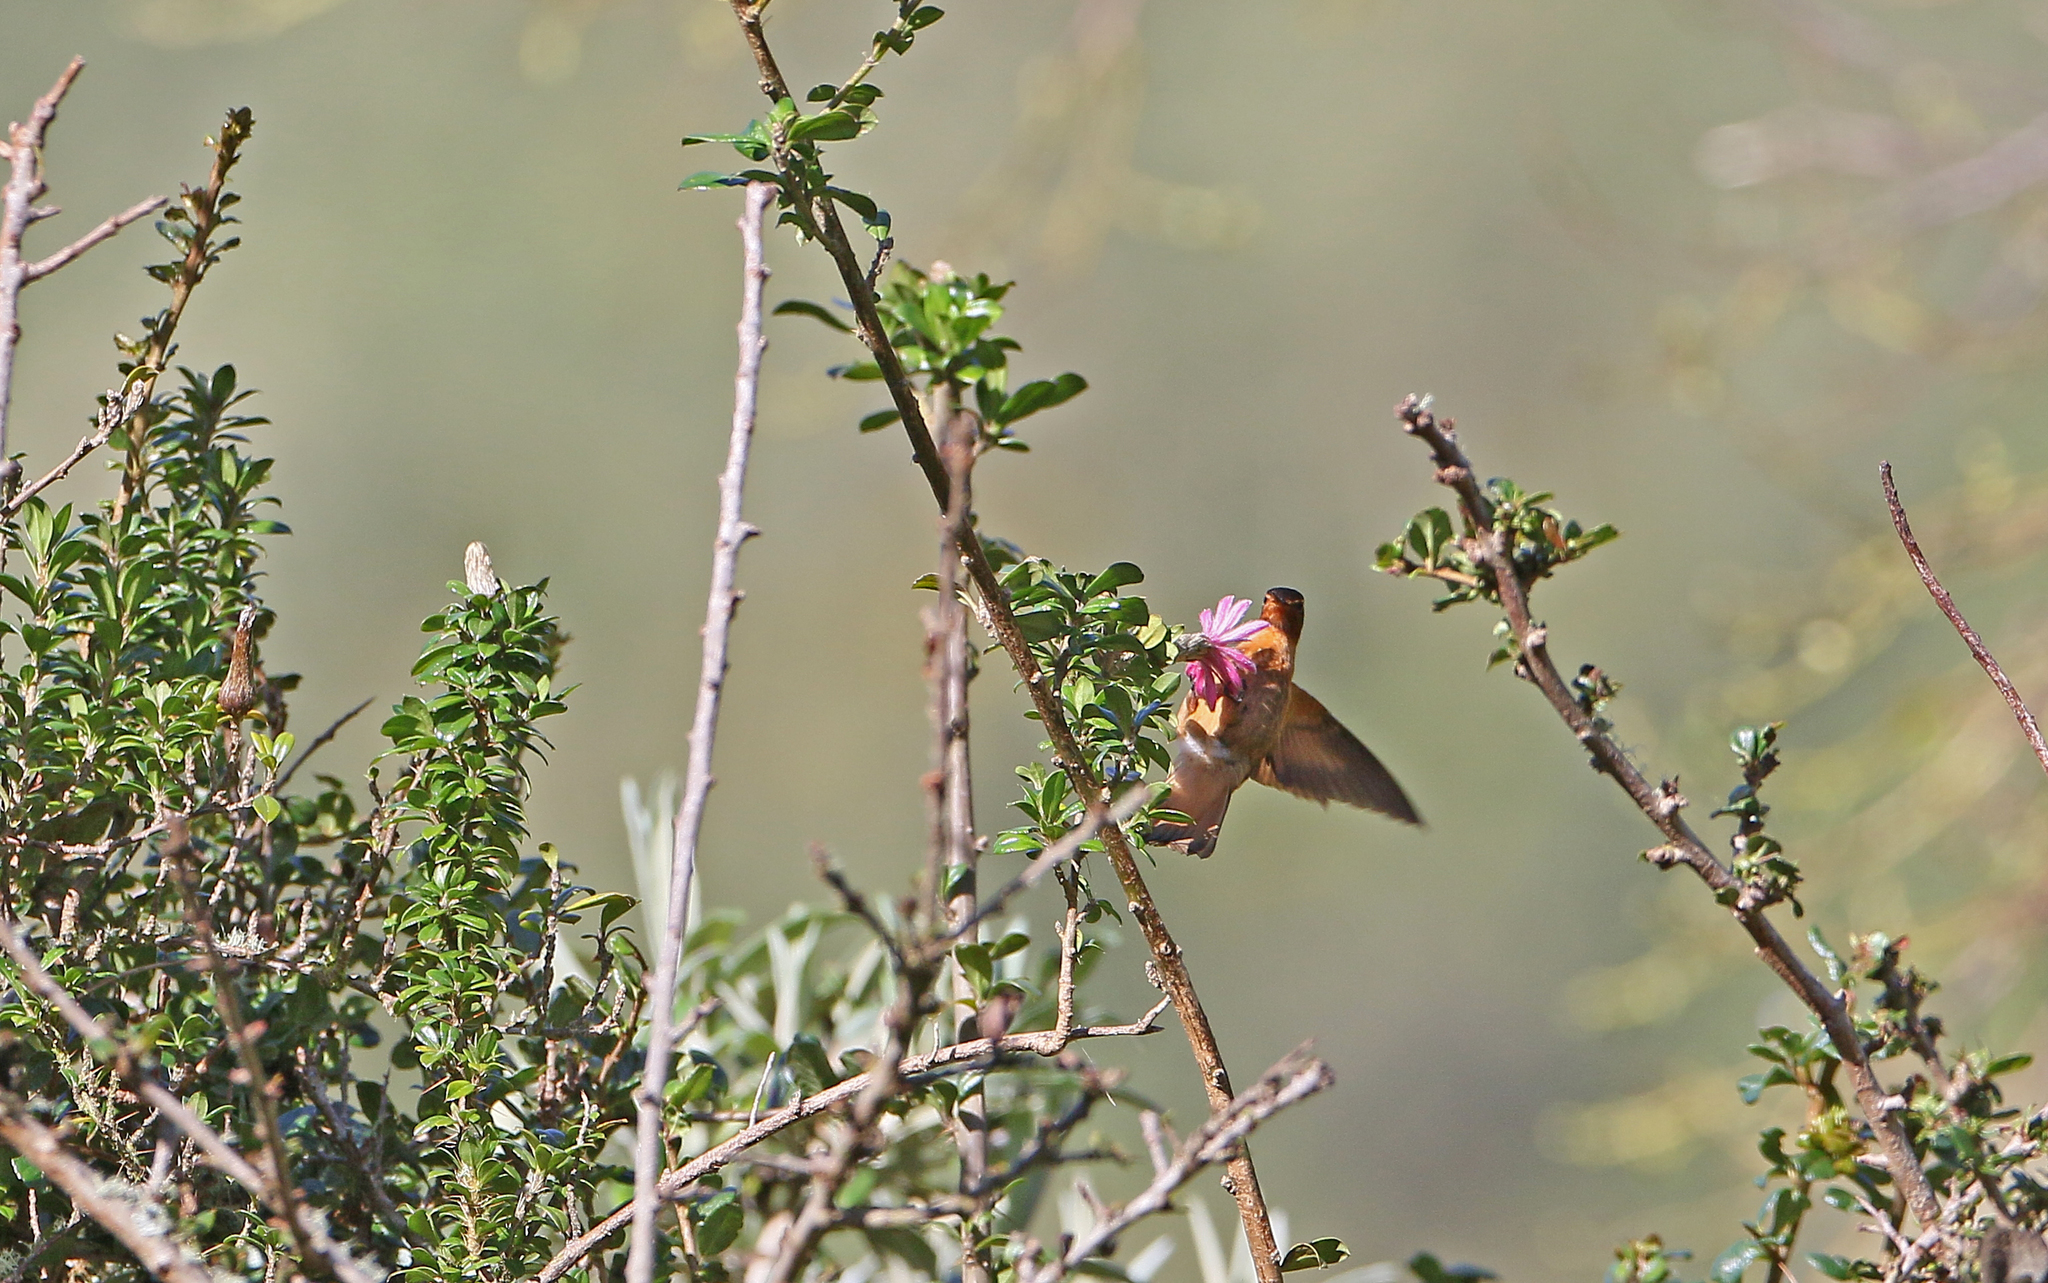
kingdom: Animalia
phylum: Chordata
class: Aves
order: Apodiformes
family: Trochilidae
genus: Aglaeactis
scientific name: Aglaeactis cupripennis
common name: Shining sunbeam
